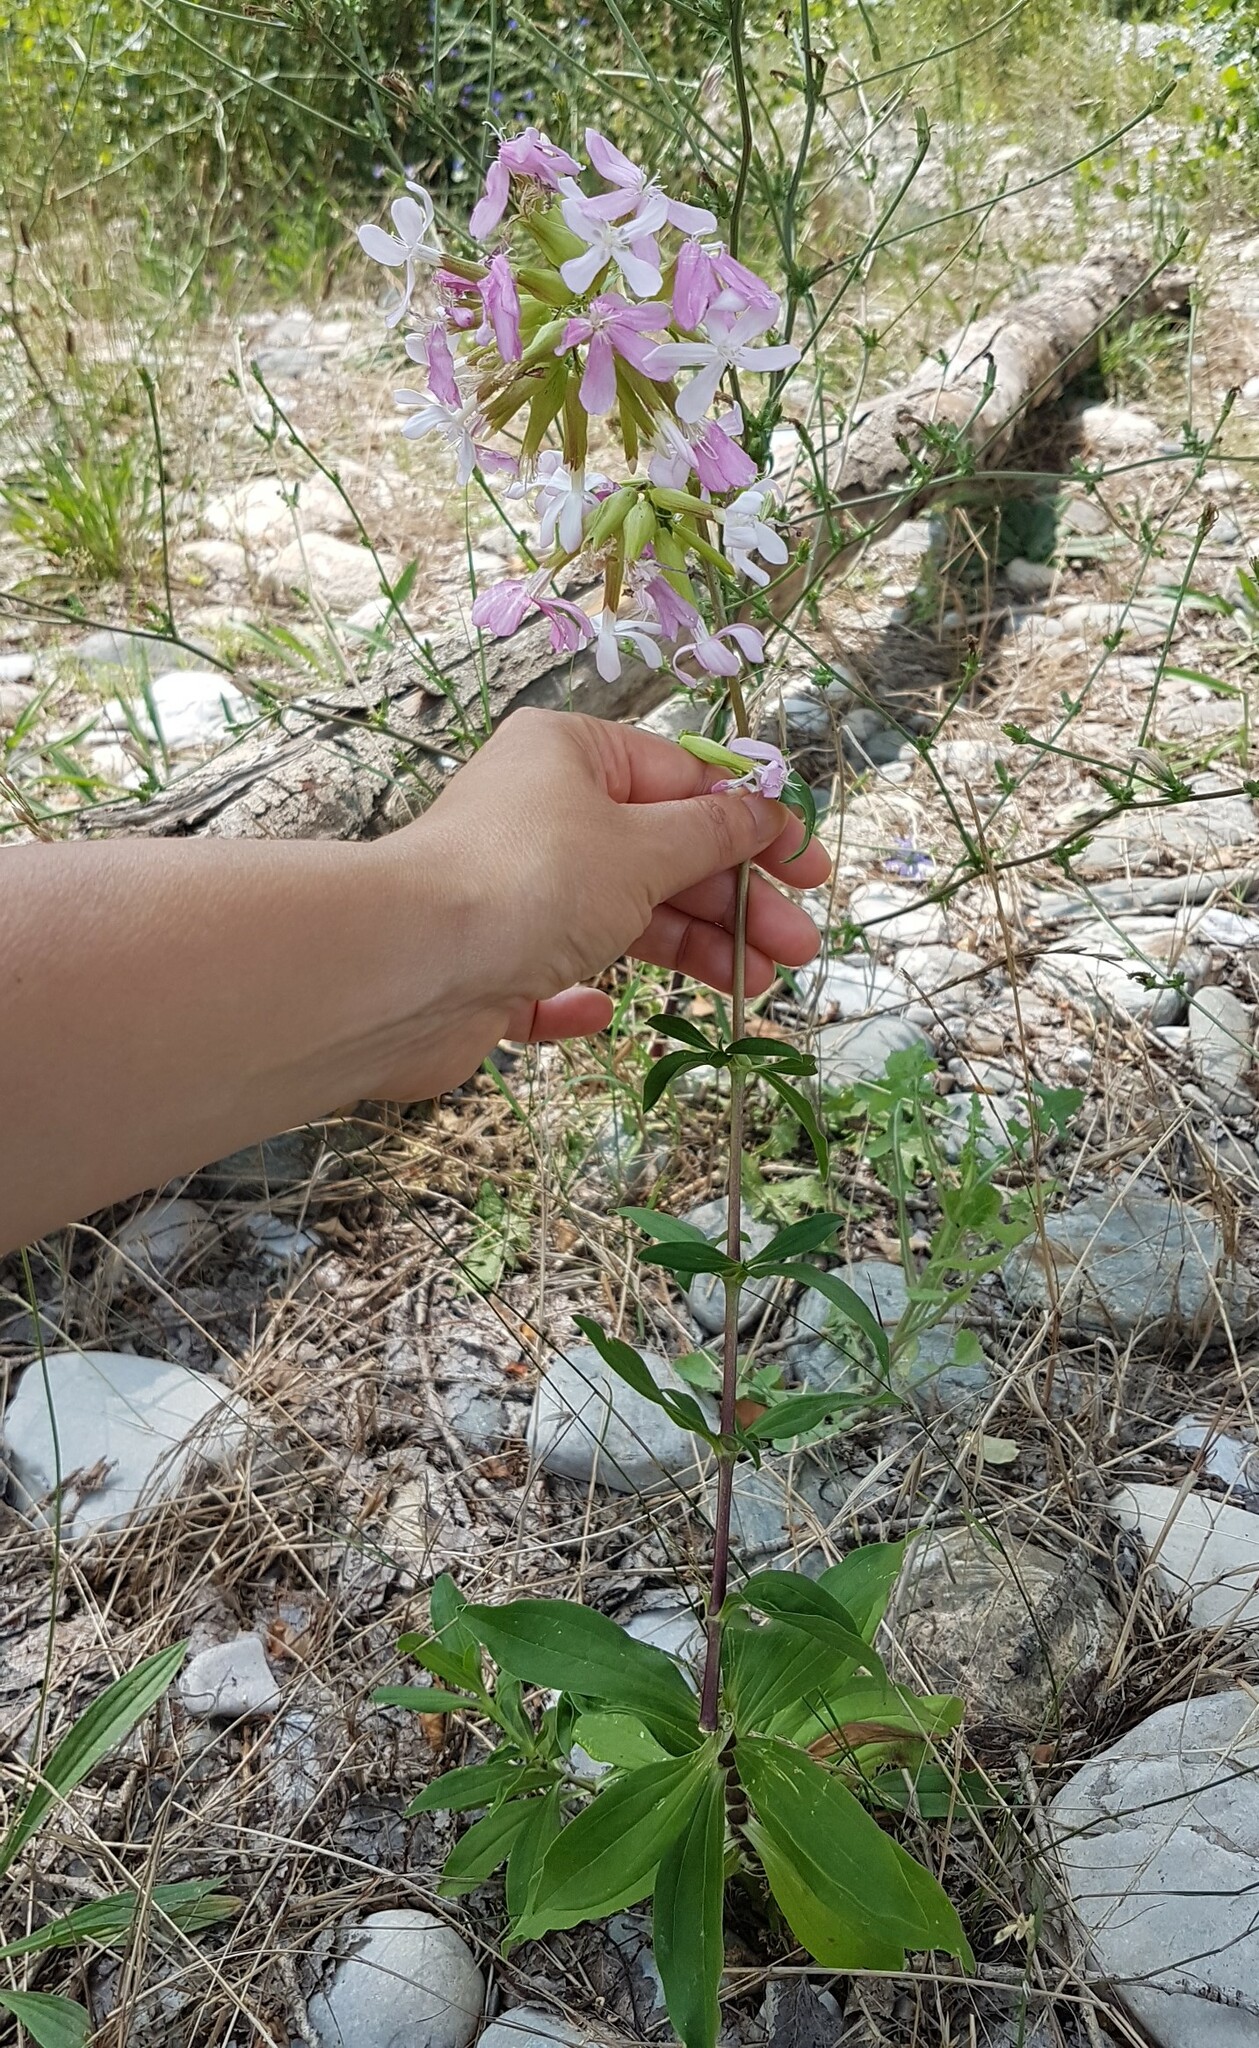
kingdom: Plantae
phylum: Tracheophyta
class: Magnoliopsida
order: Caryophyllales
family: Caryophyllaceae
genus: Saponaria
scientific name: Saponaria officinalis
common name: Soapwort
